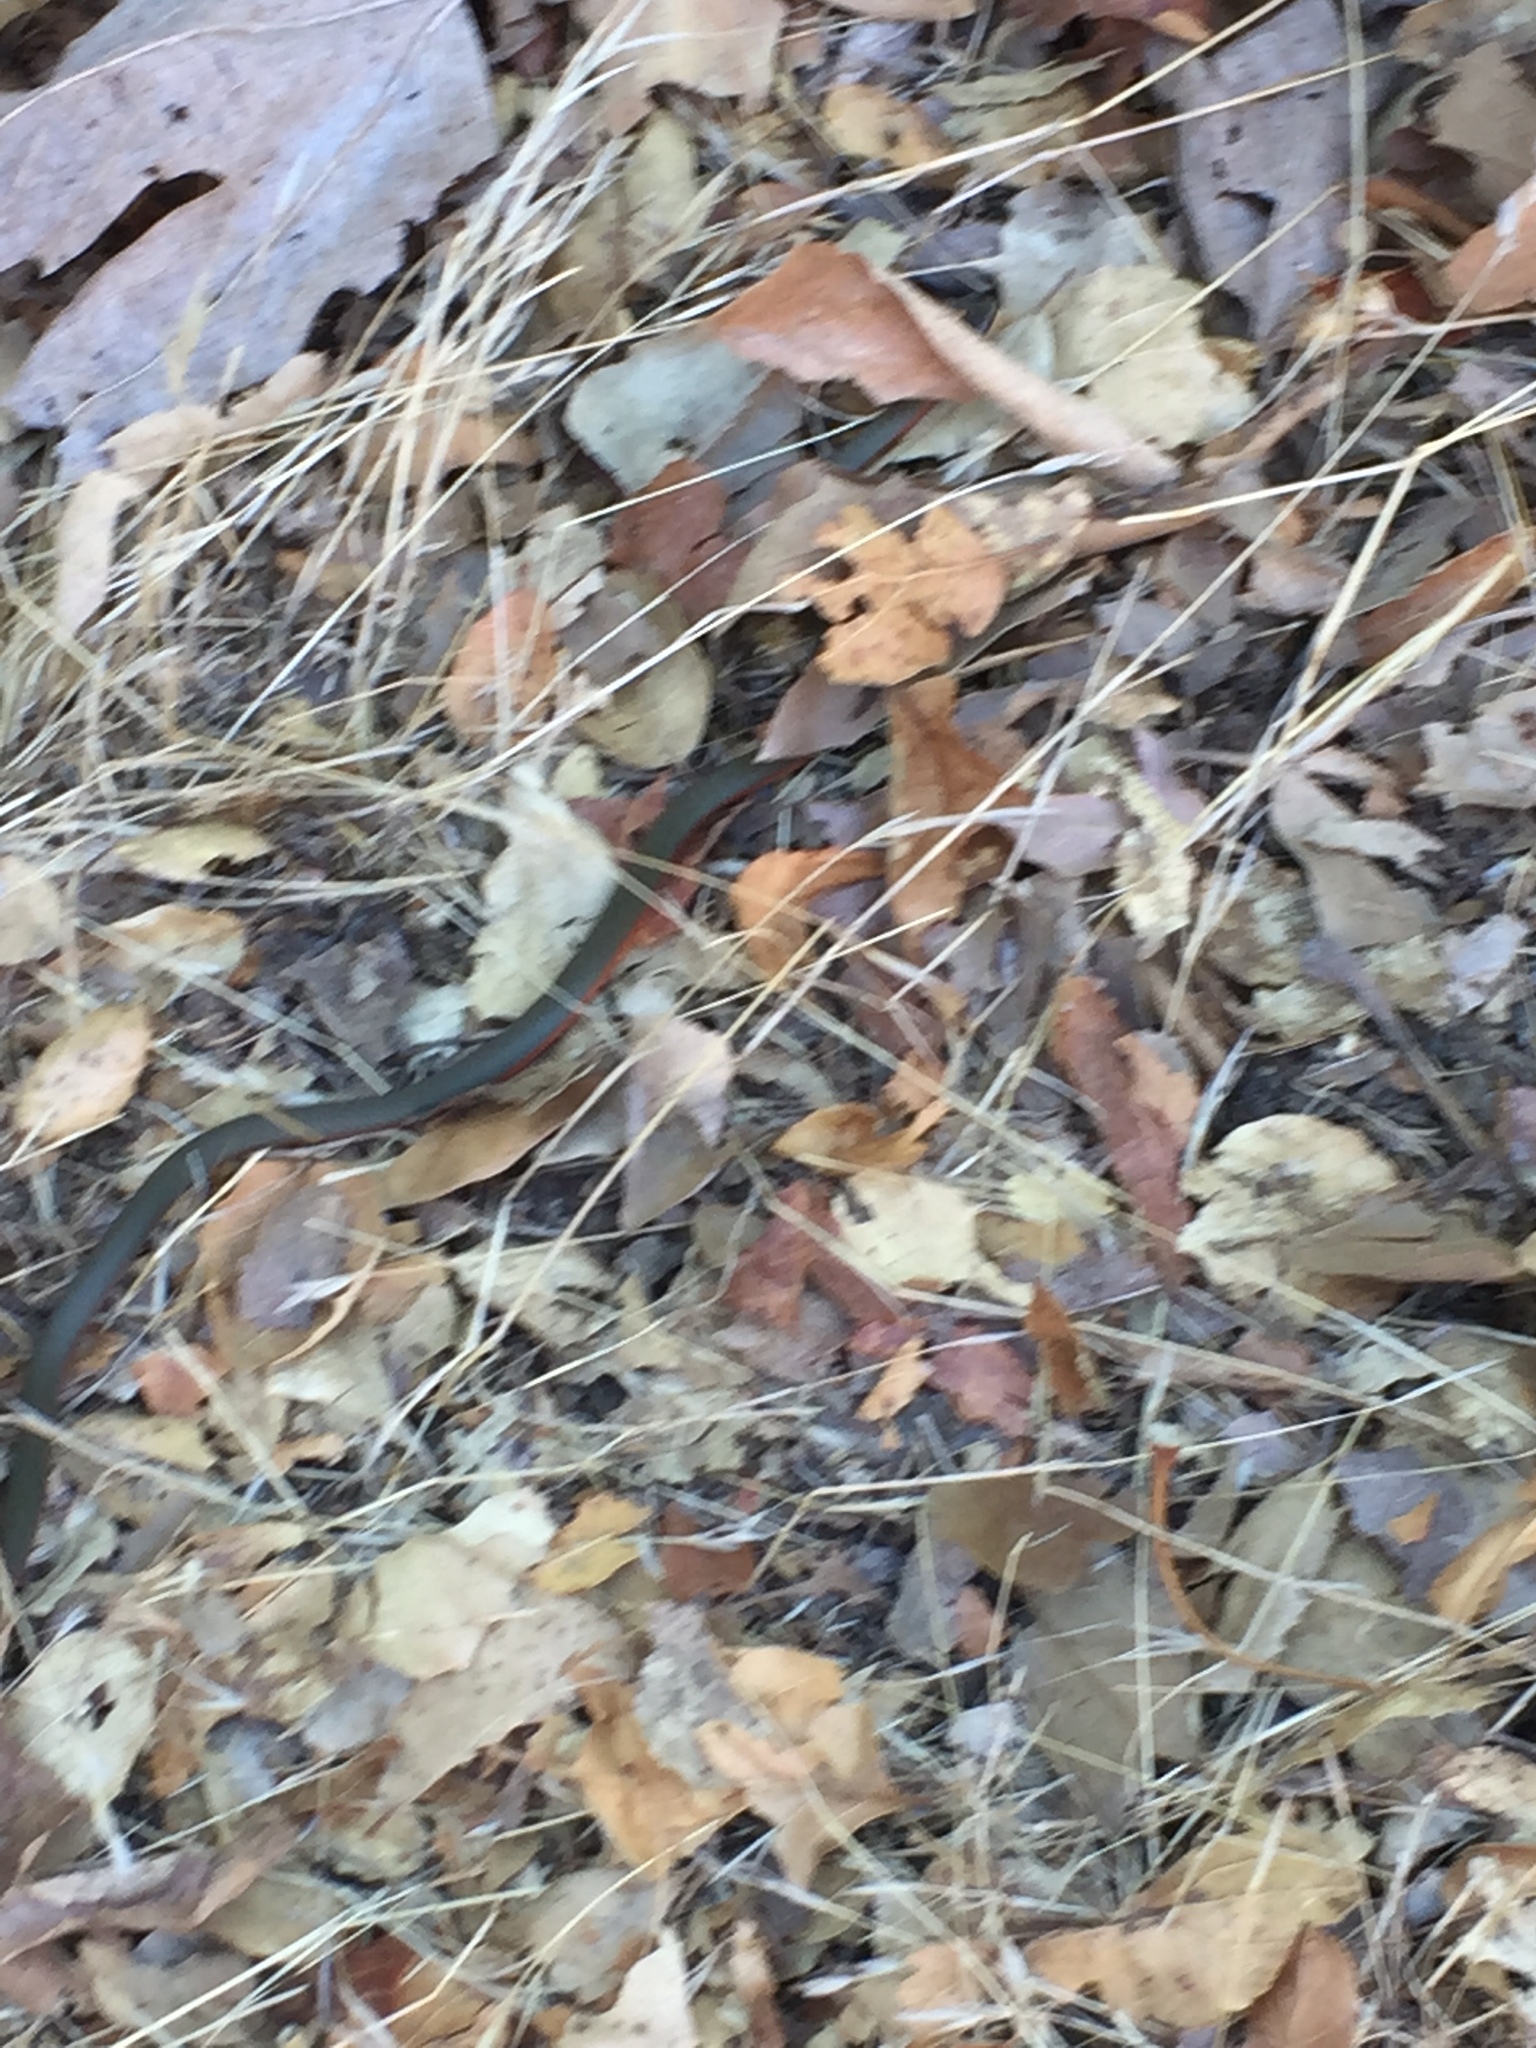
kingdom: Animalia
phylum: Chordata
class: Squamata
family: Colubridae
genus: Diadophis
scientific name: Diadophis punctatus
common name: Ringneck snake
